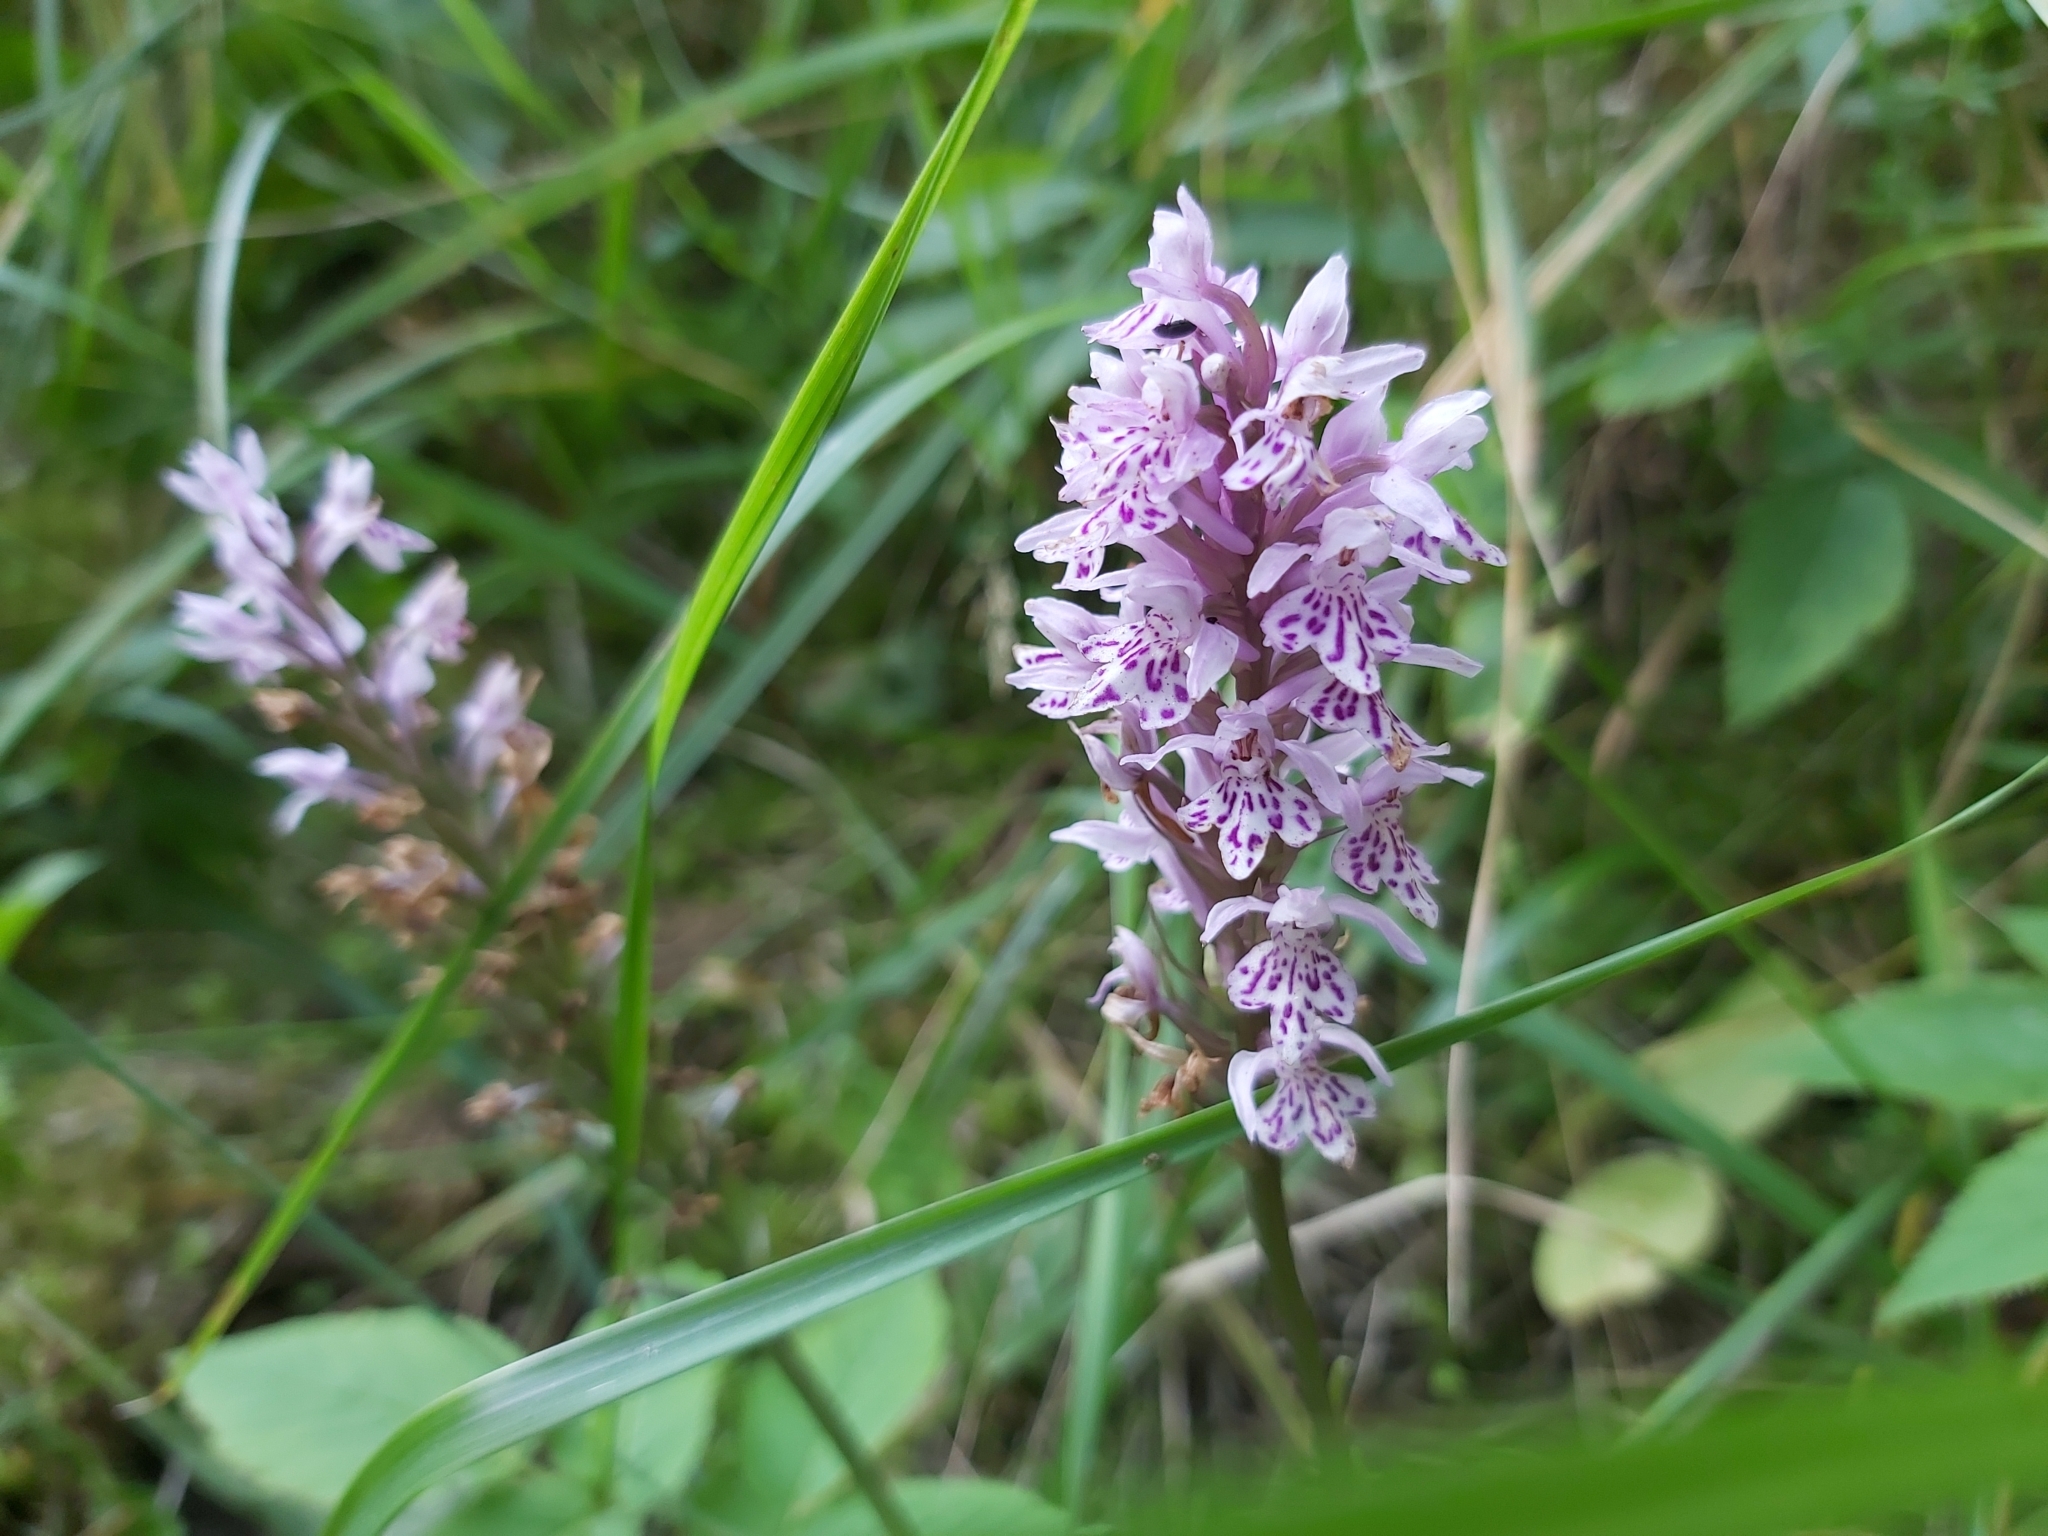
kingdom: Plantae
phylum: Tracheophyta
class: Liliopsida
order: Asparagales
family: Orchidaceae
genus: Dactylorhiza
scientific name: Dactylorhiza maculata
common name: Heath spotted-orchid
